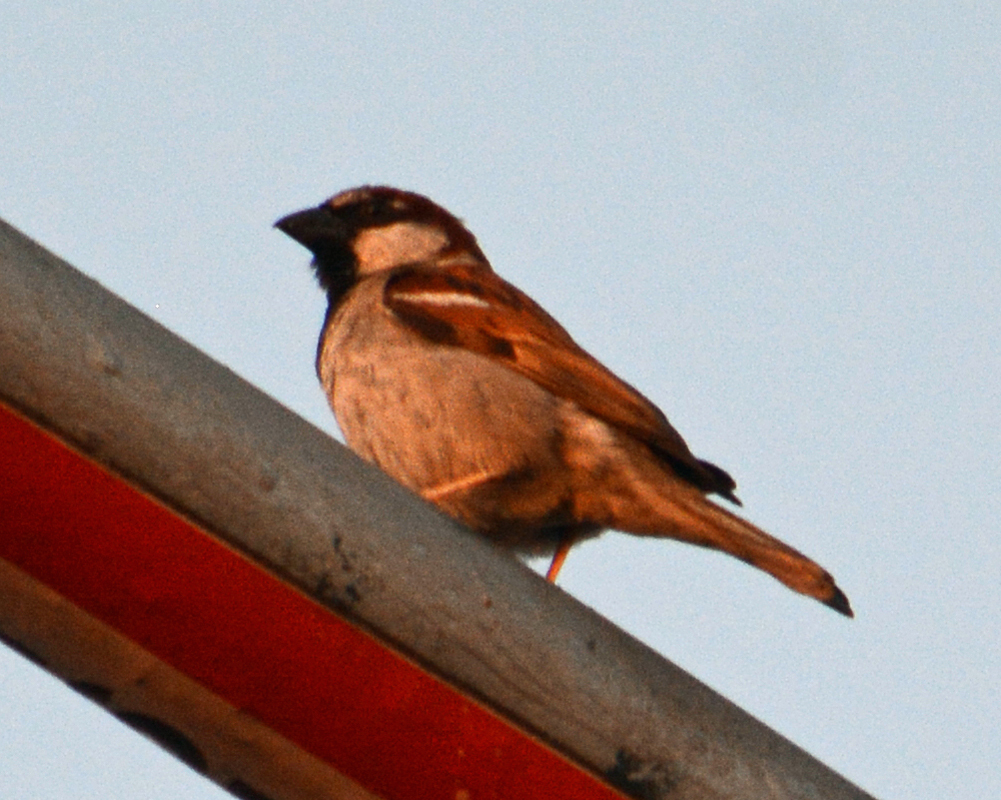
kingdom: Animalia
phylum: Chordata
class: Aves
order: Passeriformes
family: Passeridae
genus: Passer
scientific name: Passer domesticus
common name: House sparrow
